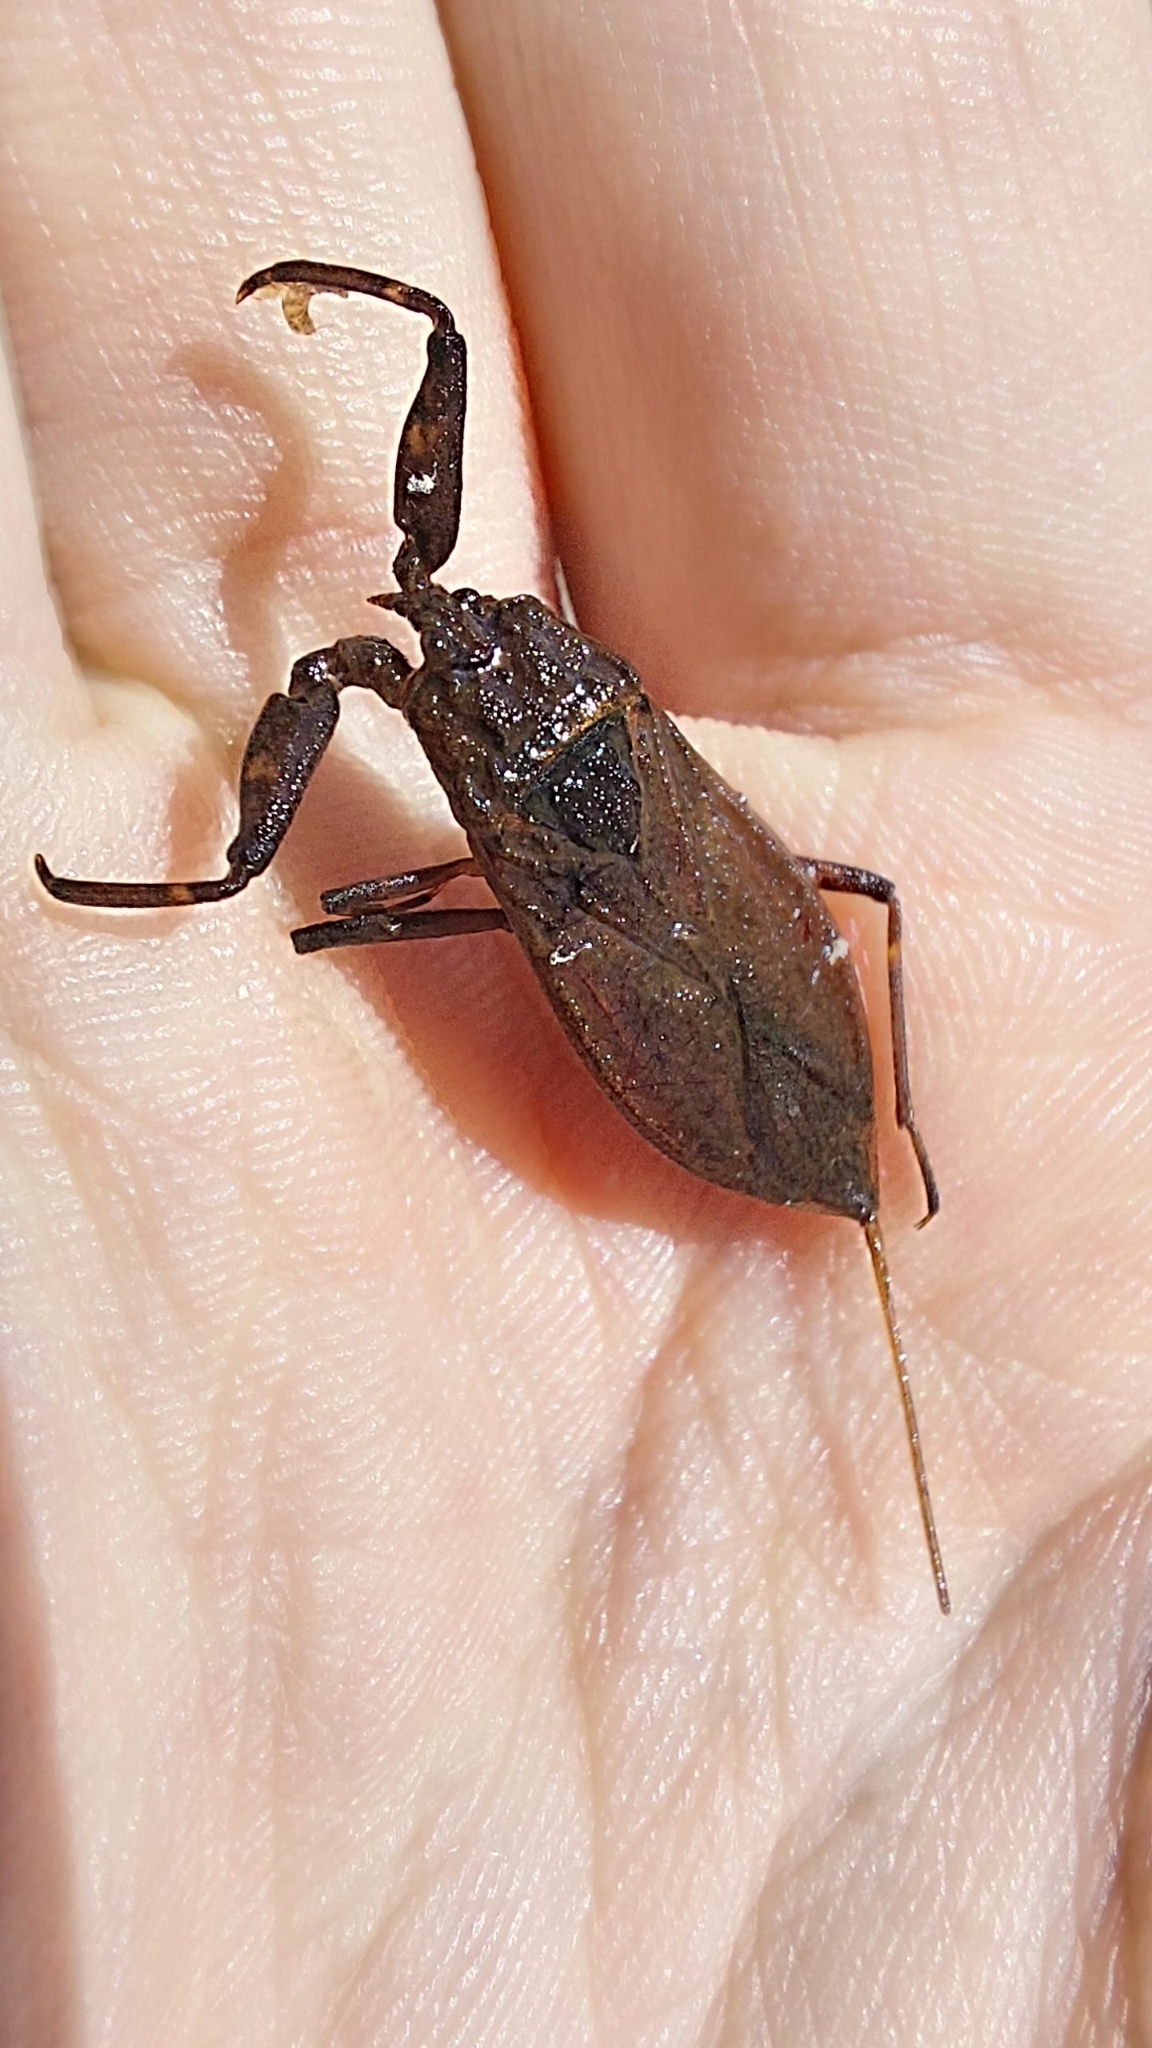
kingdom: Animalia
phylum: Arthropoda
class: Insecta
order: Hemiptera
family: Nepidae
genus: Nepa
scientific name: Nepa cinerea
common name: Water scorpion
